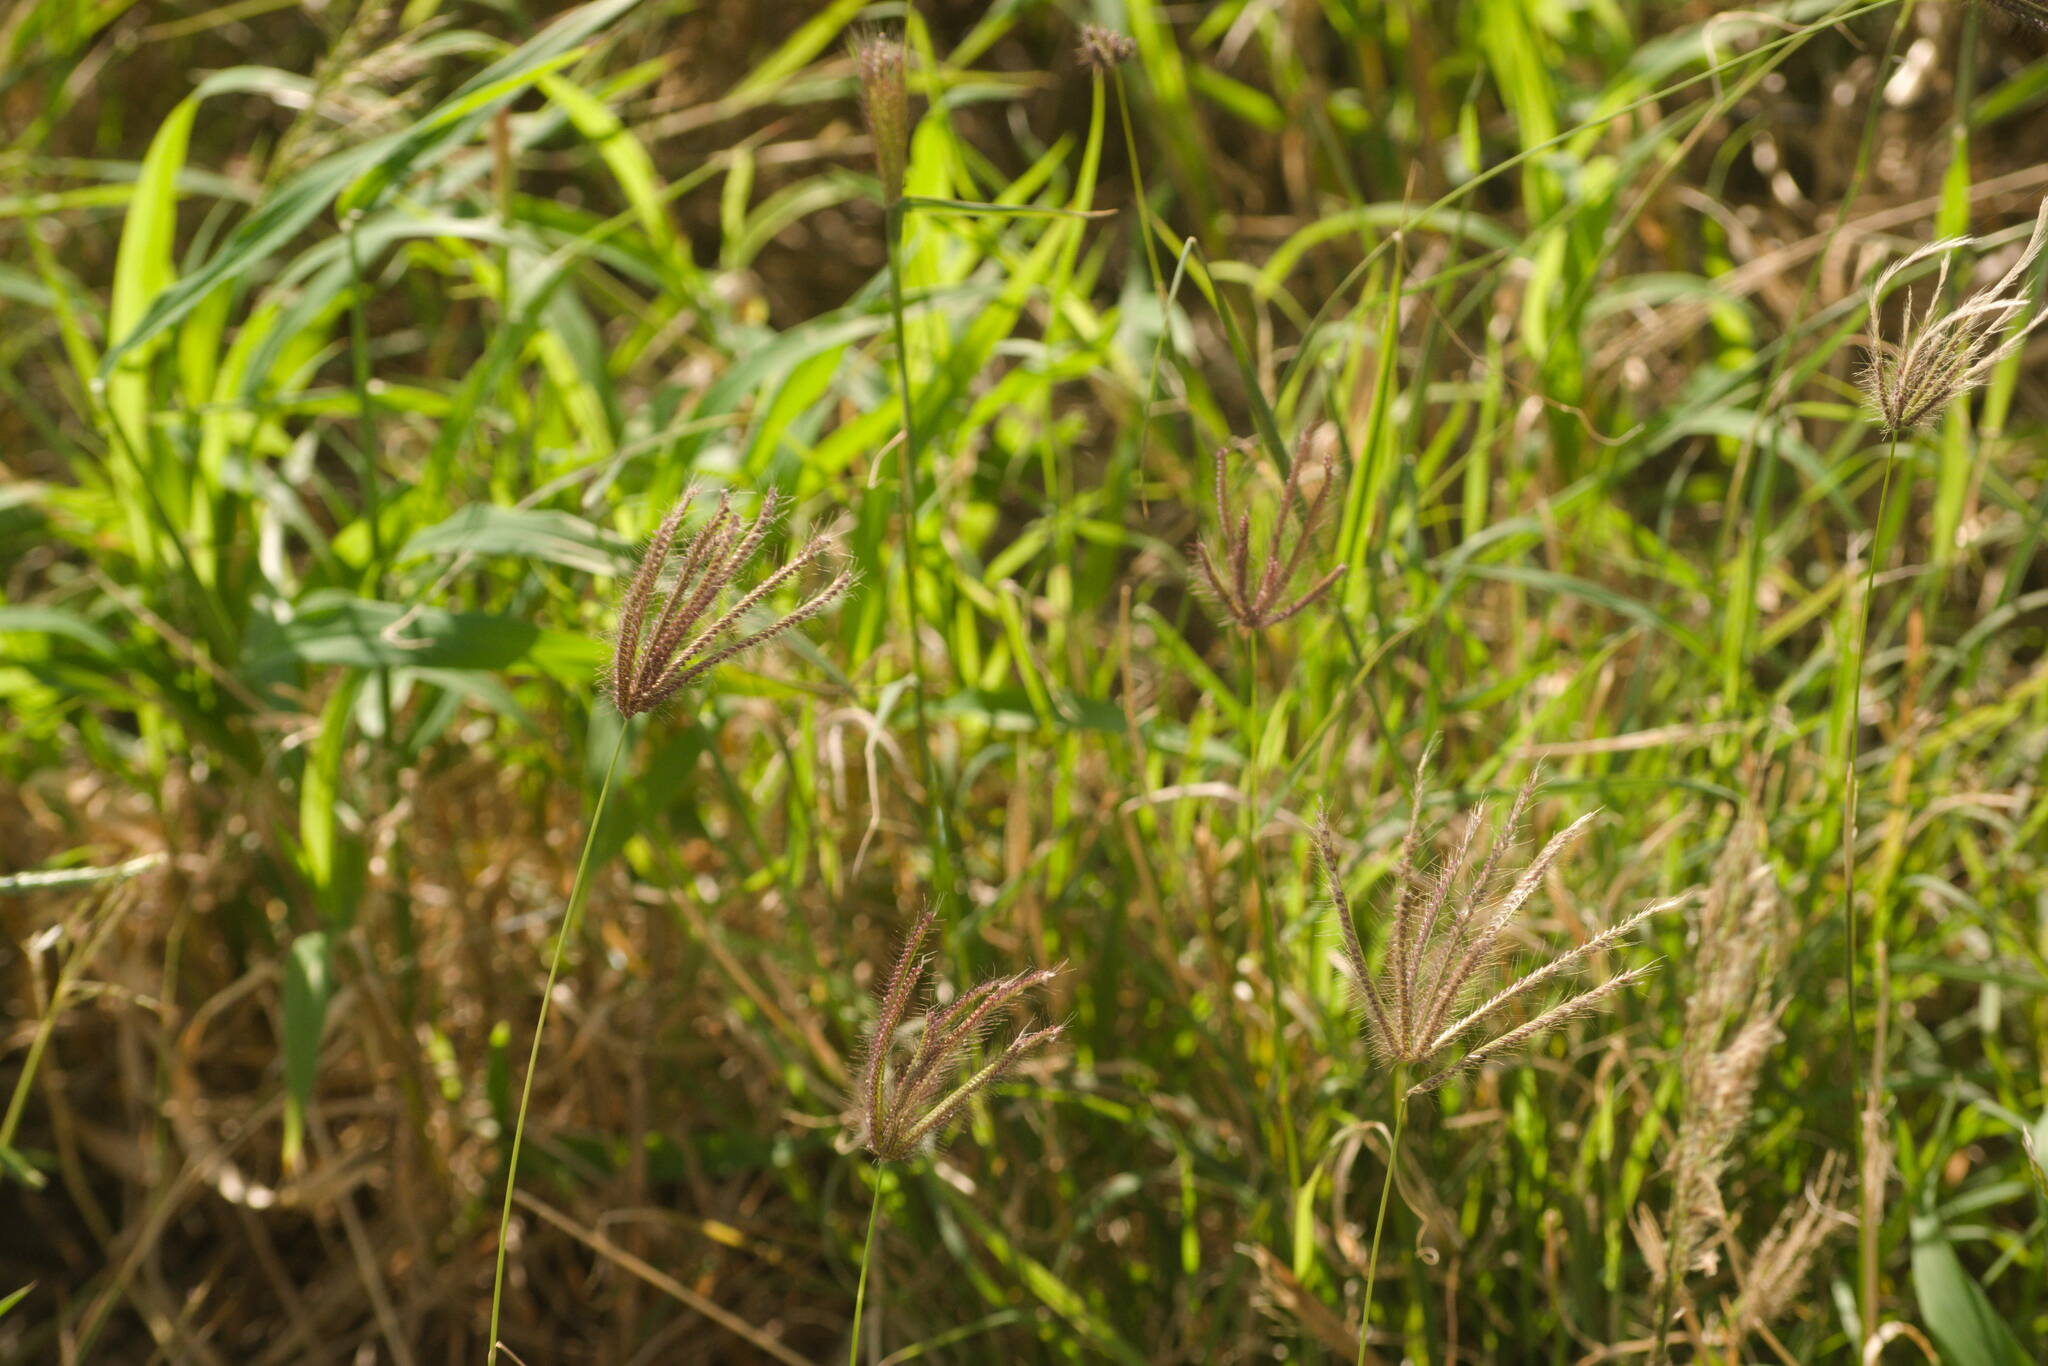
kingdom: Plantae
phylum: Tracheophyta
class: Liliopsida
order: Poales
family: Poaceae
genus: Chloris
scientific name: Chloris barbata
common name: Swollen fingergrass
